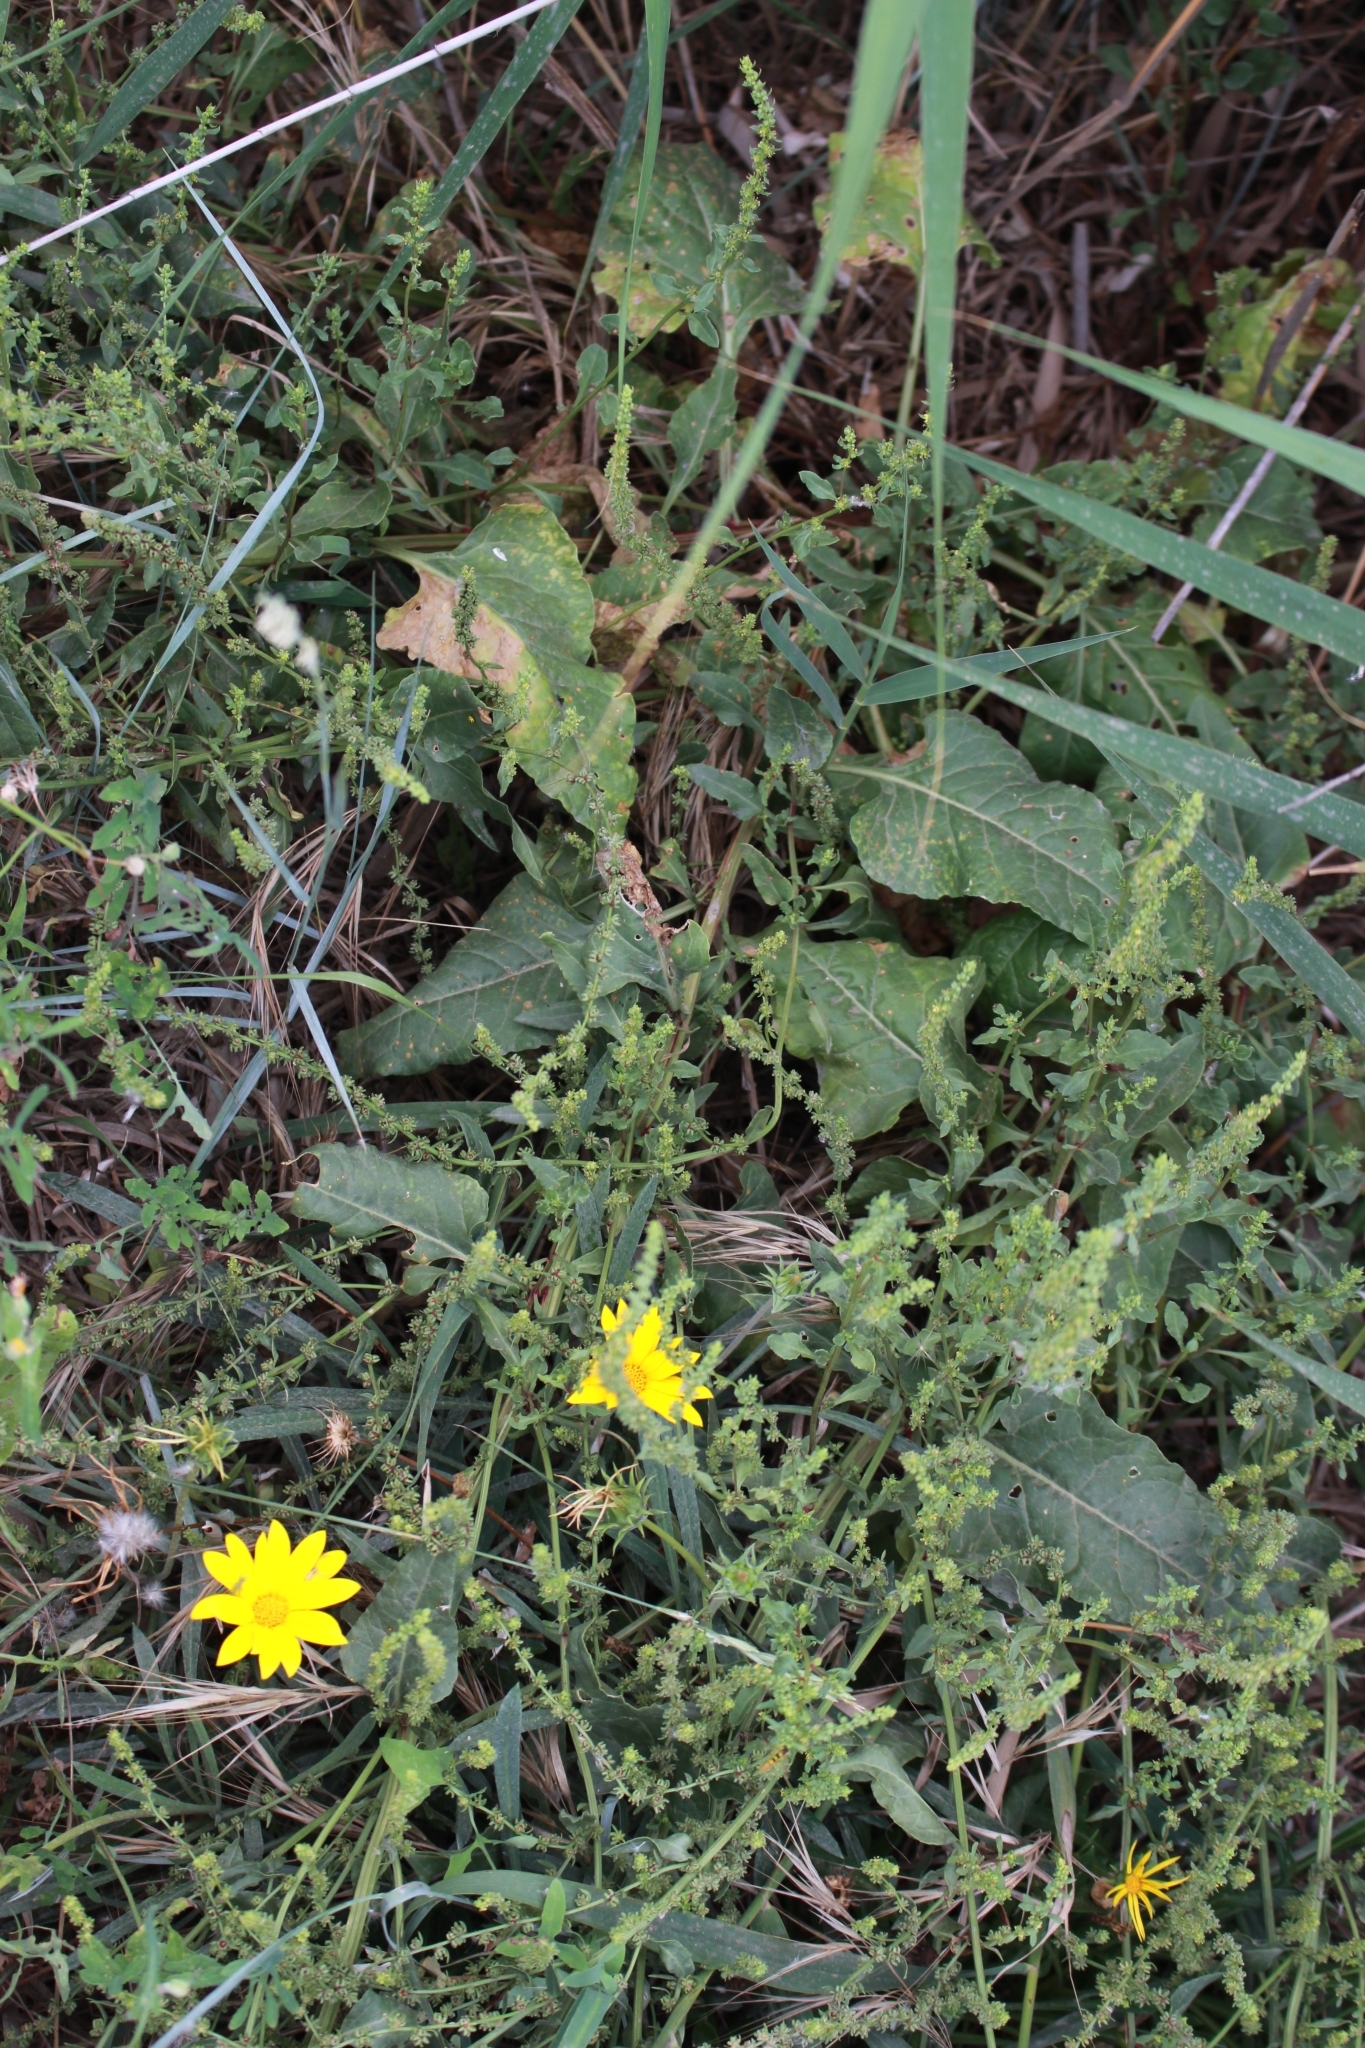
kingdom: Plantae
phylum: Tracheophyta
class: Magnoliopsida
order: Caryophyllales
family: Amaranthaceae
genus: Beta
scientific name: Beta vulgaris
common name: Beet
